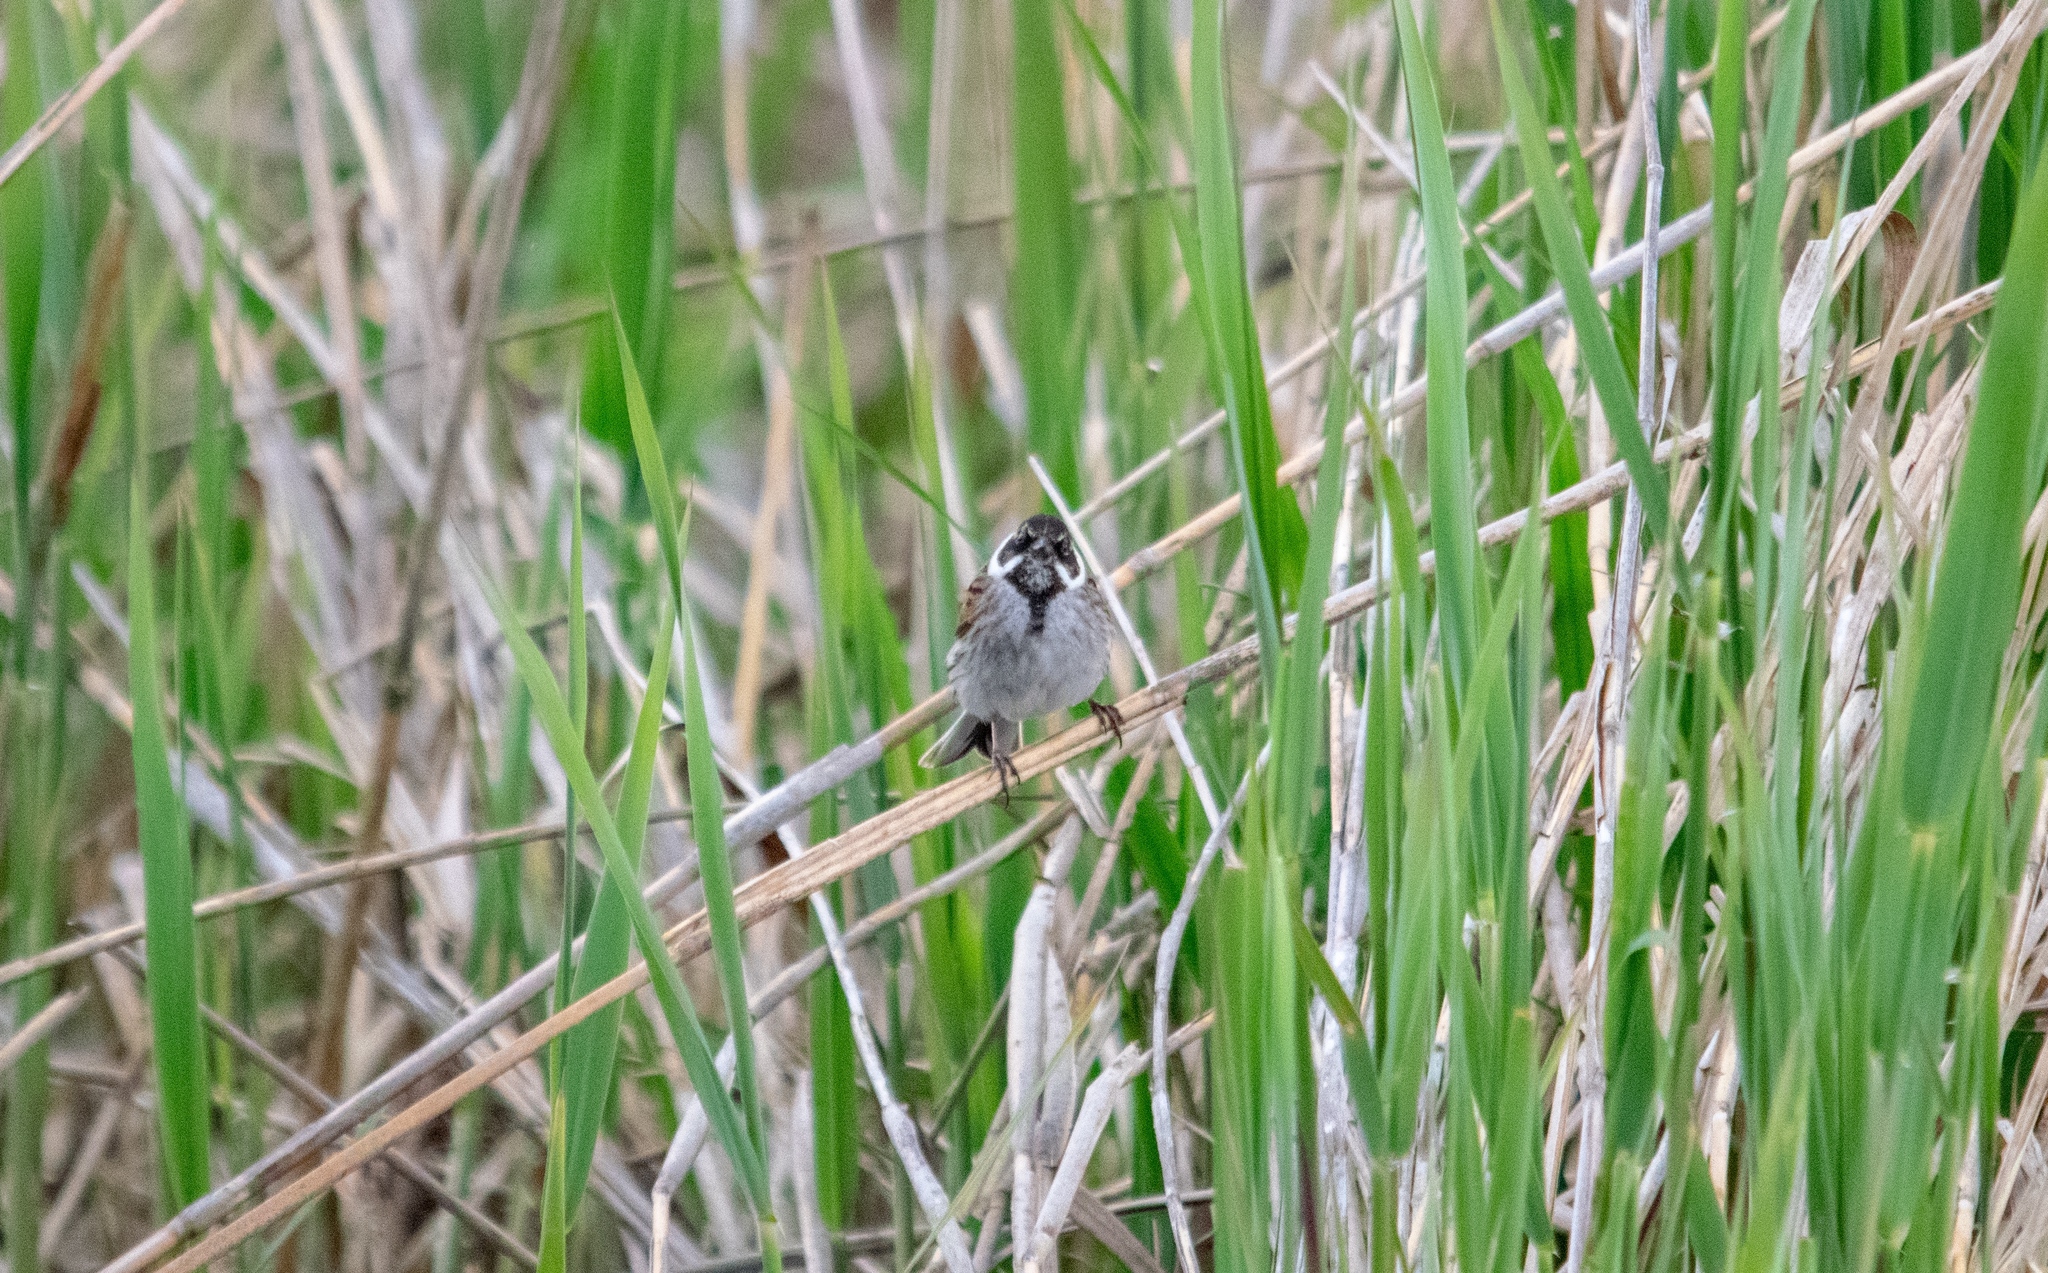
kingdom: Animalia
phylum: Chordata
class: Aves
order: Passeriformes
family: Emberizidae
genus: Emberiza
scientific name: Emberiza schoeniclus
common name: Reed bunting
